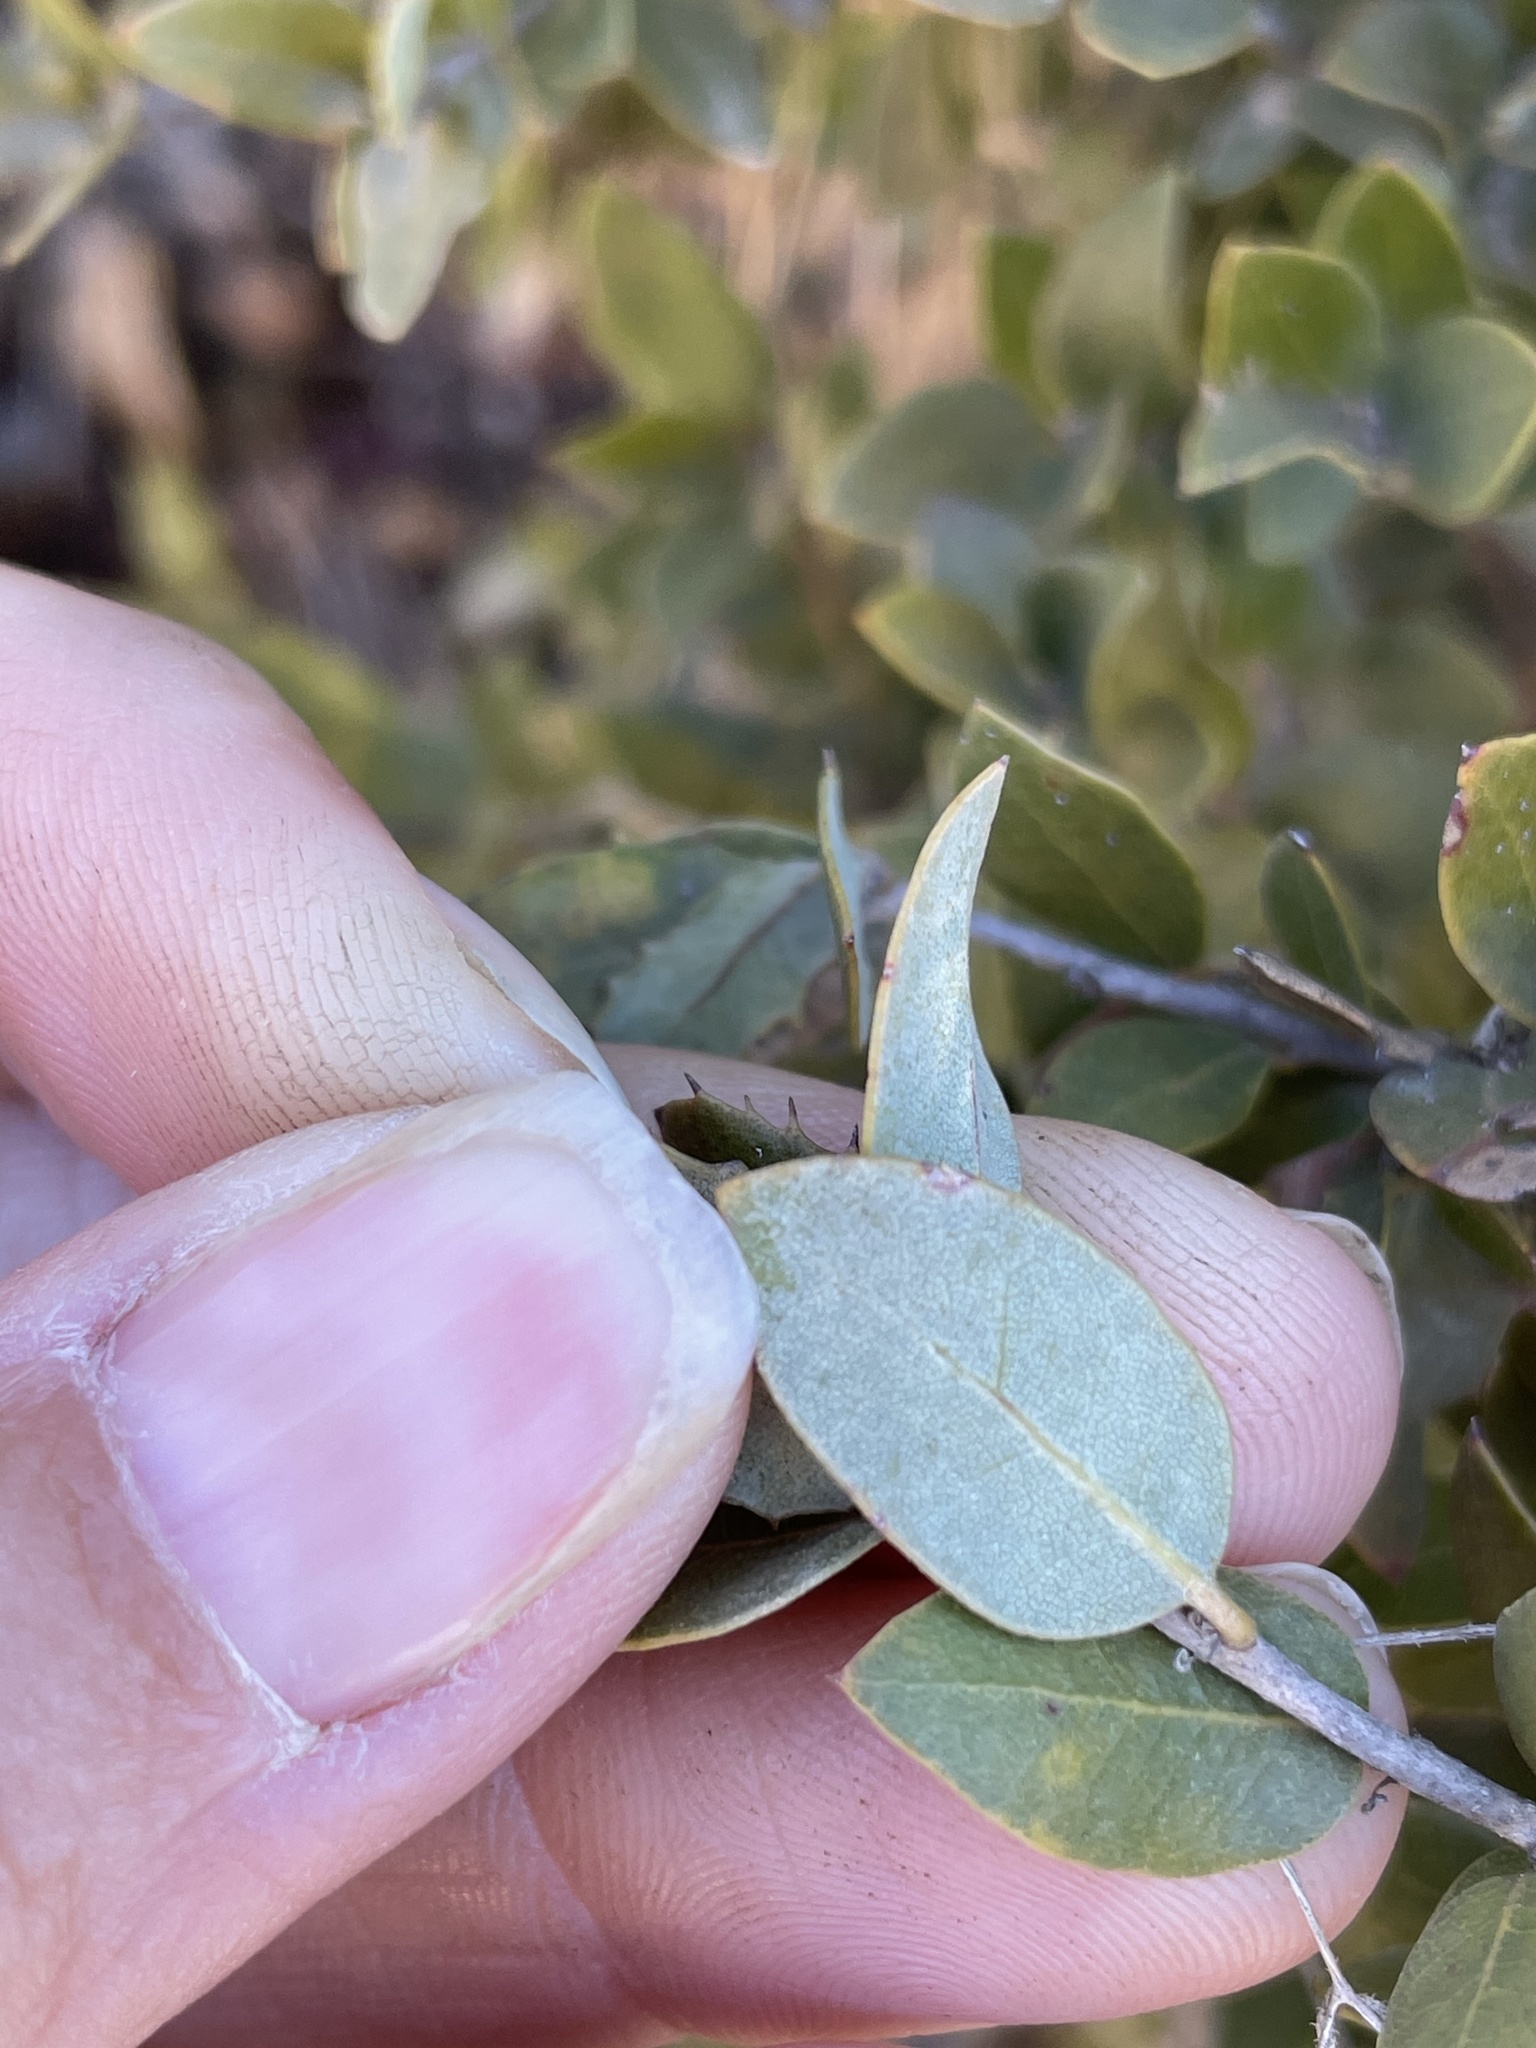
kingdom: Plantae
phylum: Tracheophyta
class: Magnoliopsida
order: Fagales
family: Fagaceae
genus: Quercus
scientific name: Quercus cedrosensis
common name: Cedros island oak
